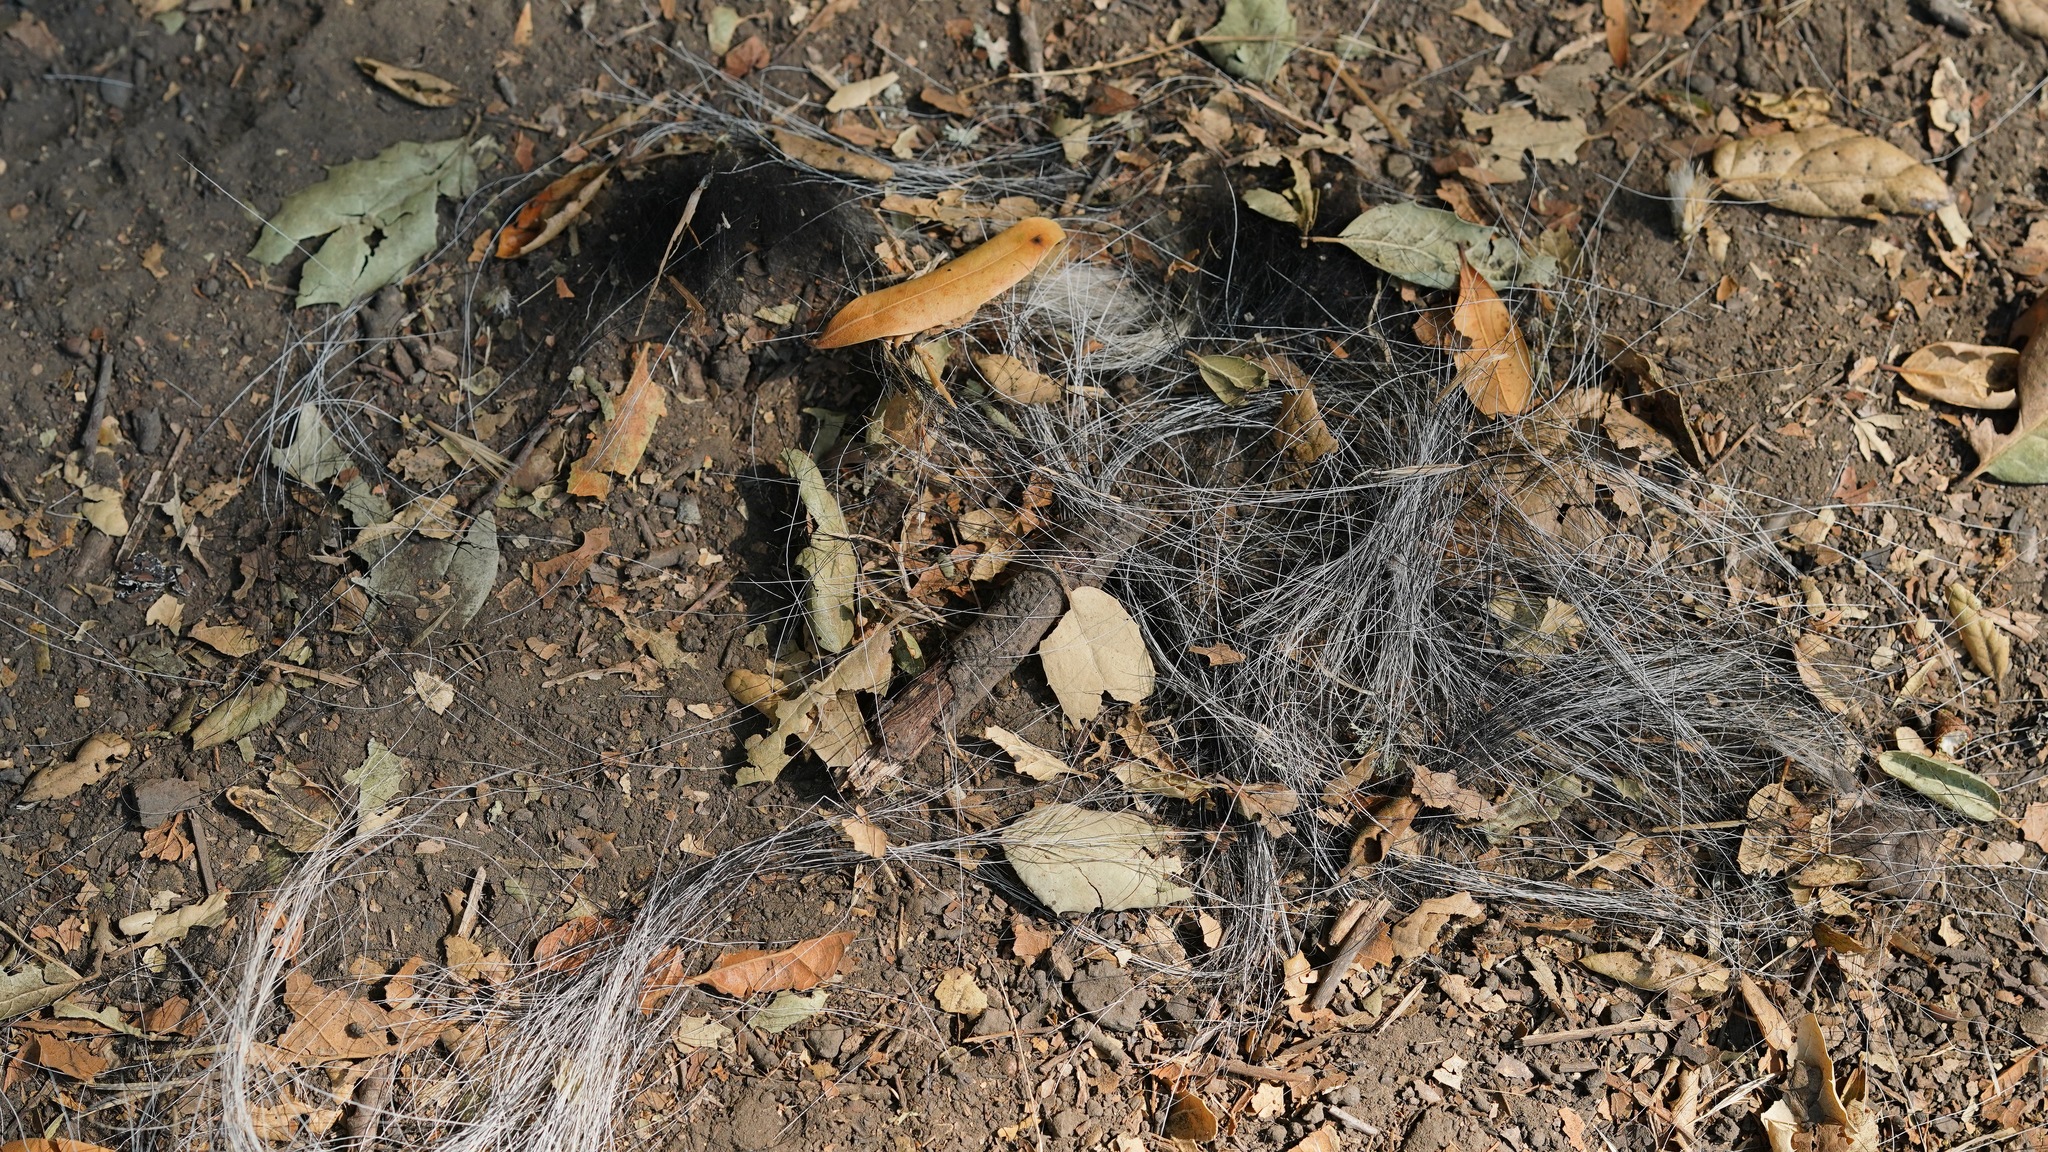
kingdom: Animalia
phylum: Chordata
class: Mammalia
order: Carnivora
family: Mephitidae
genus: Mephitis
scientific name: Mephitis mephitis
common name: Striped skunk
